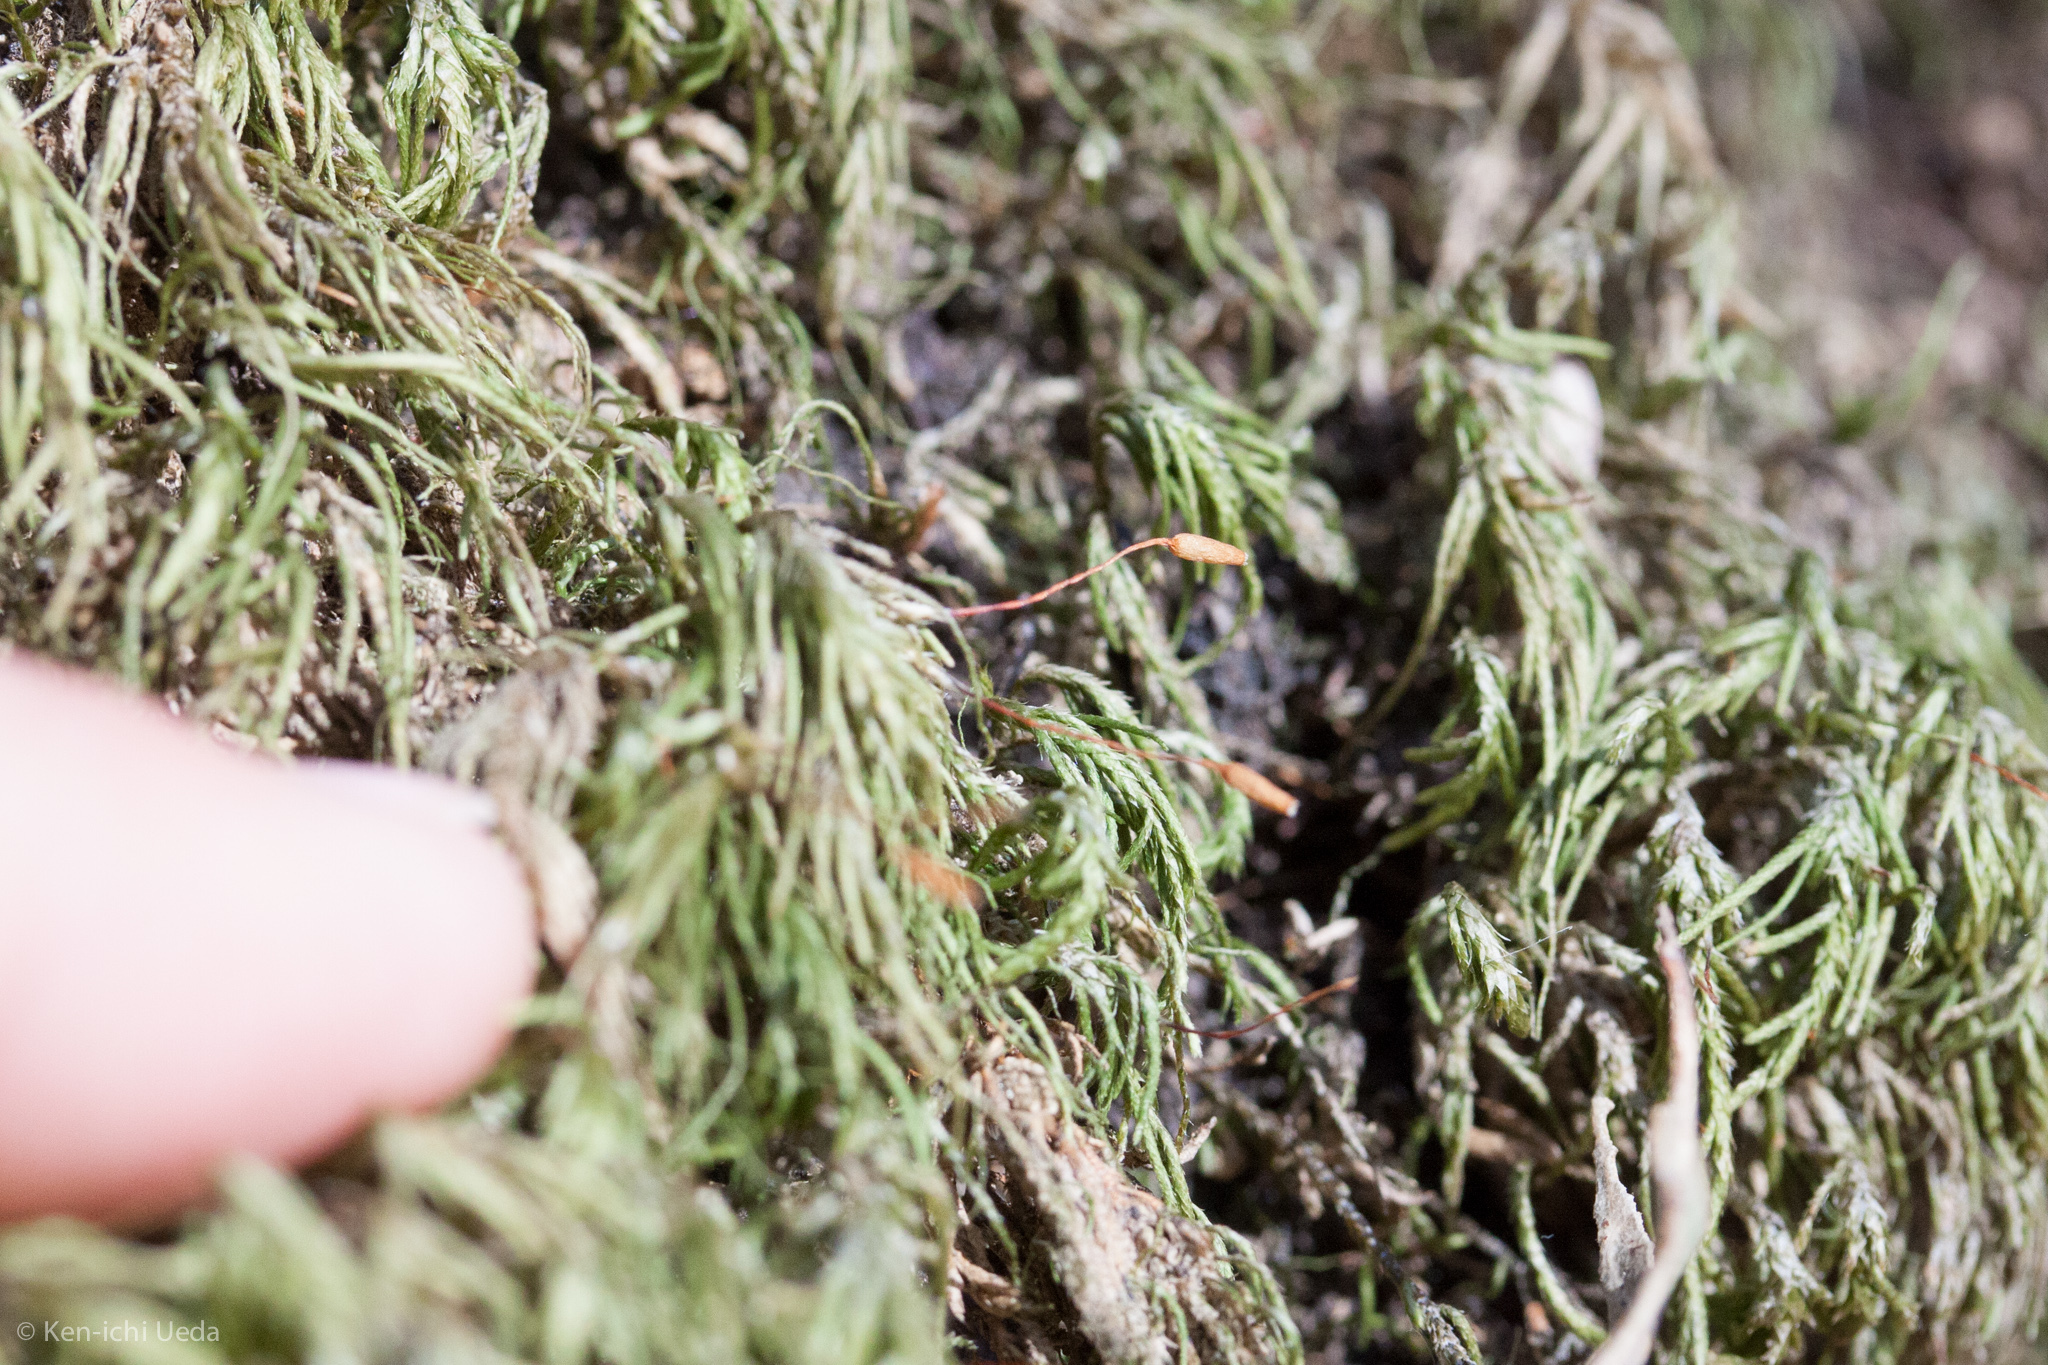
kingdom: Plantae
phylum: Bryophyta
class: Bryopsida
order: Hypnales
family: Lembophyllaceae
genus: Pseudisothecium
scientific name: Pseudisothecium cristatum
